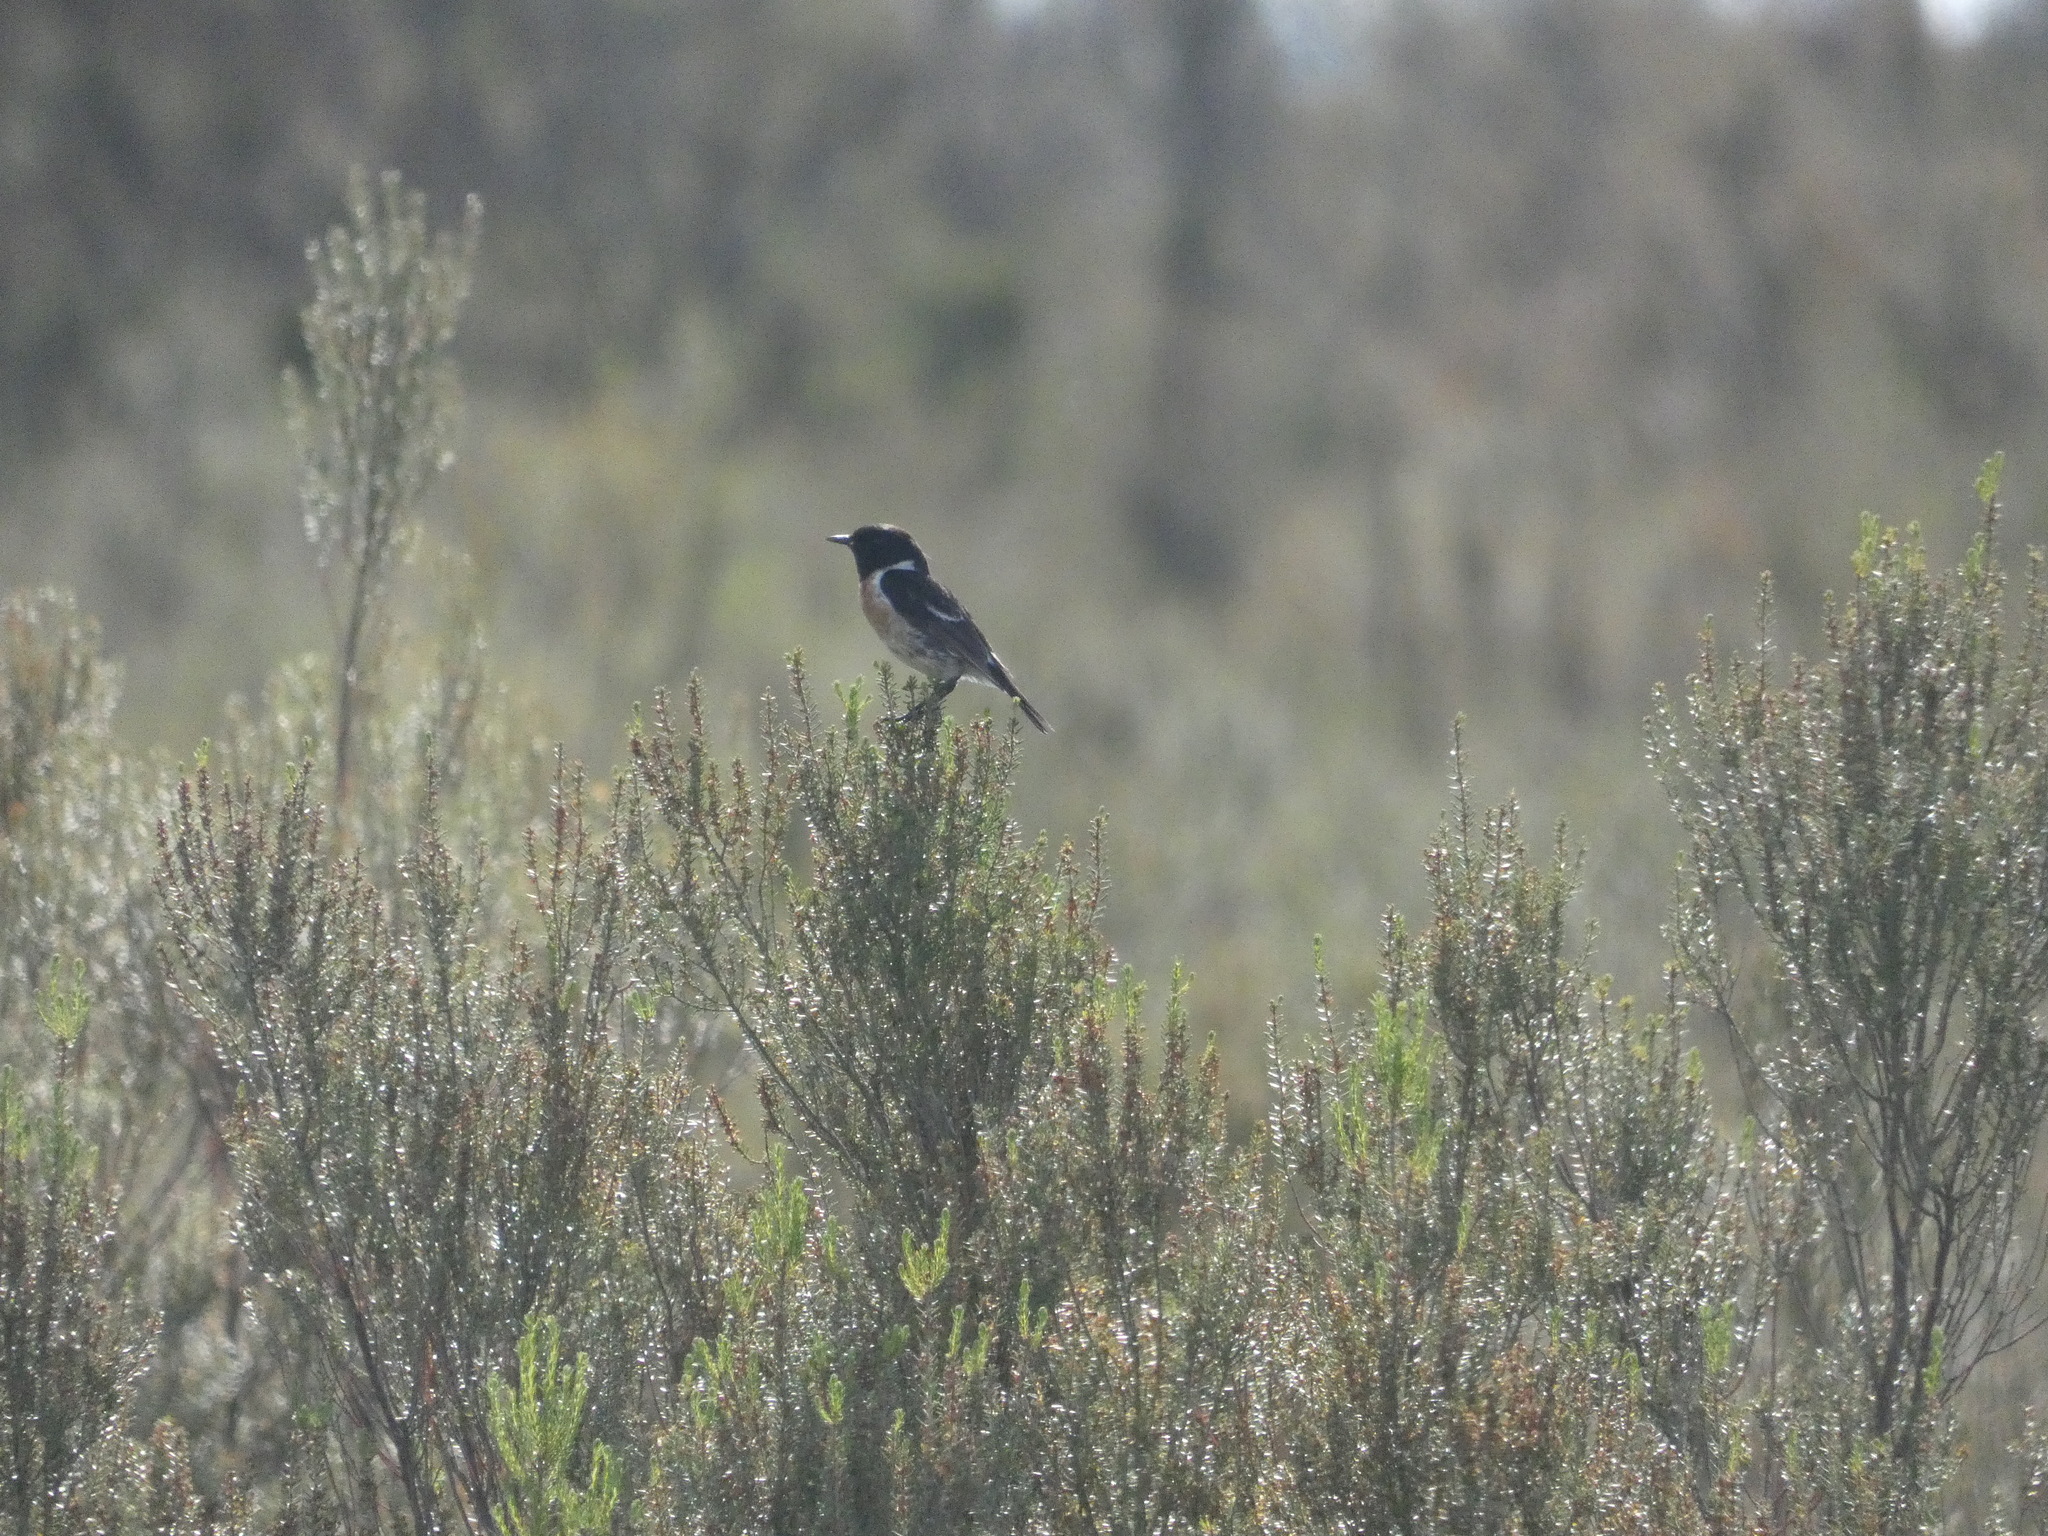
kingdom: Animalia
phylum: Chordata
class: Aves
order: Passeriformes
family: Muscicapidae
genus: Saxicola
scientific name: Saxicola rubicola
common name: European stonechat
